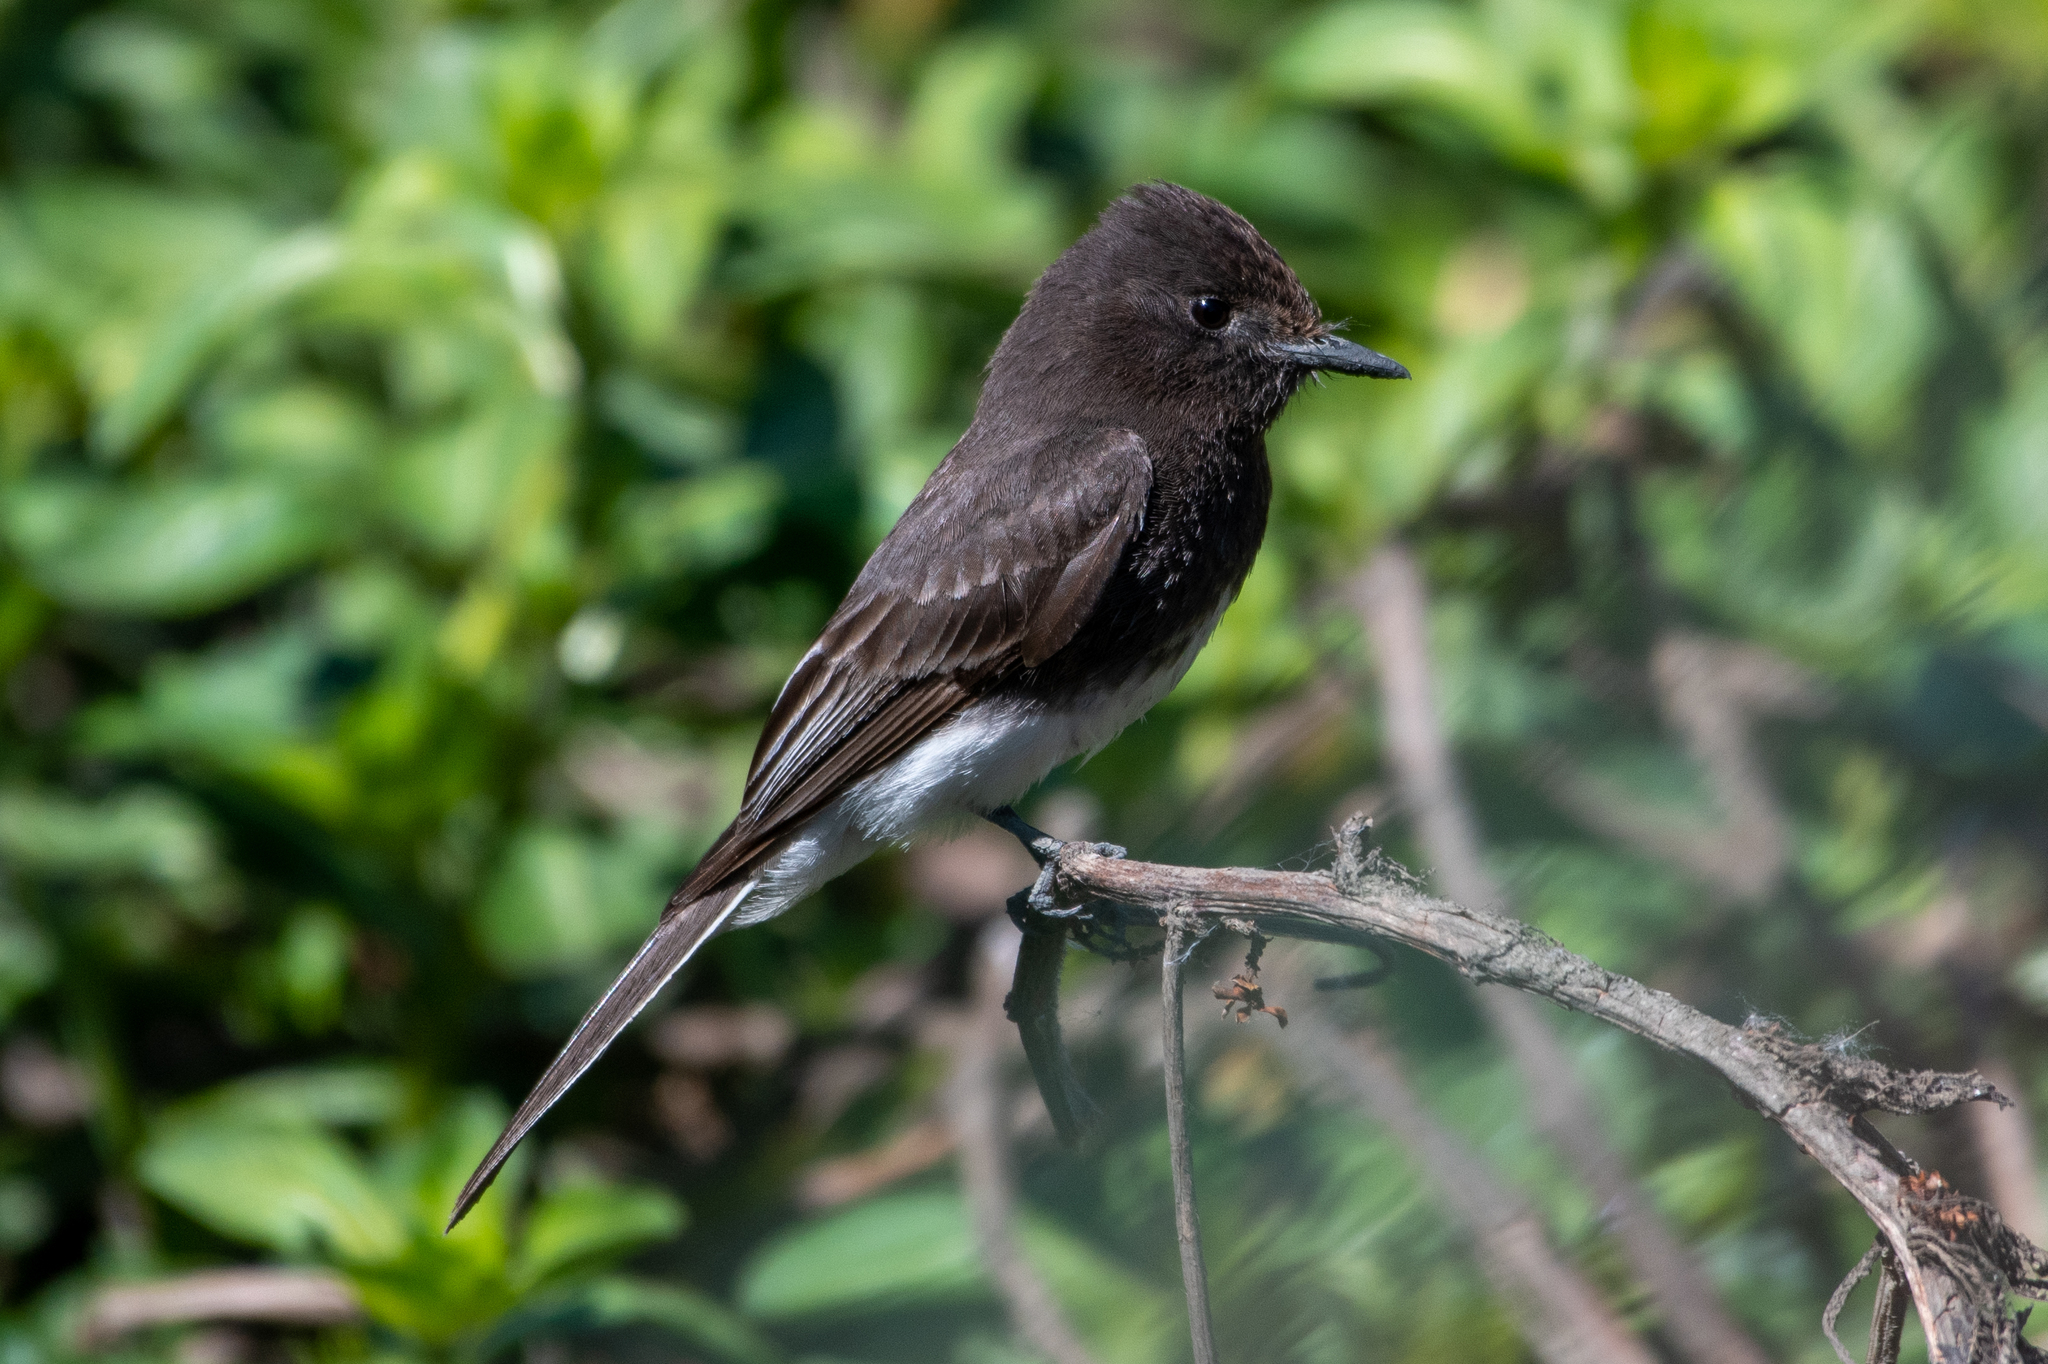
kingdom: Animalia
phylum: Chordata
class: Aves
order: Passeriformes
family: Tyrannidae
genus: Sayornis
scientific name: Sayornis nigricans
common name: Black phoebe
